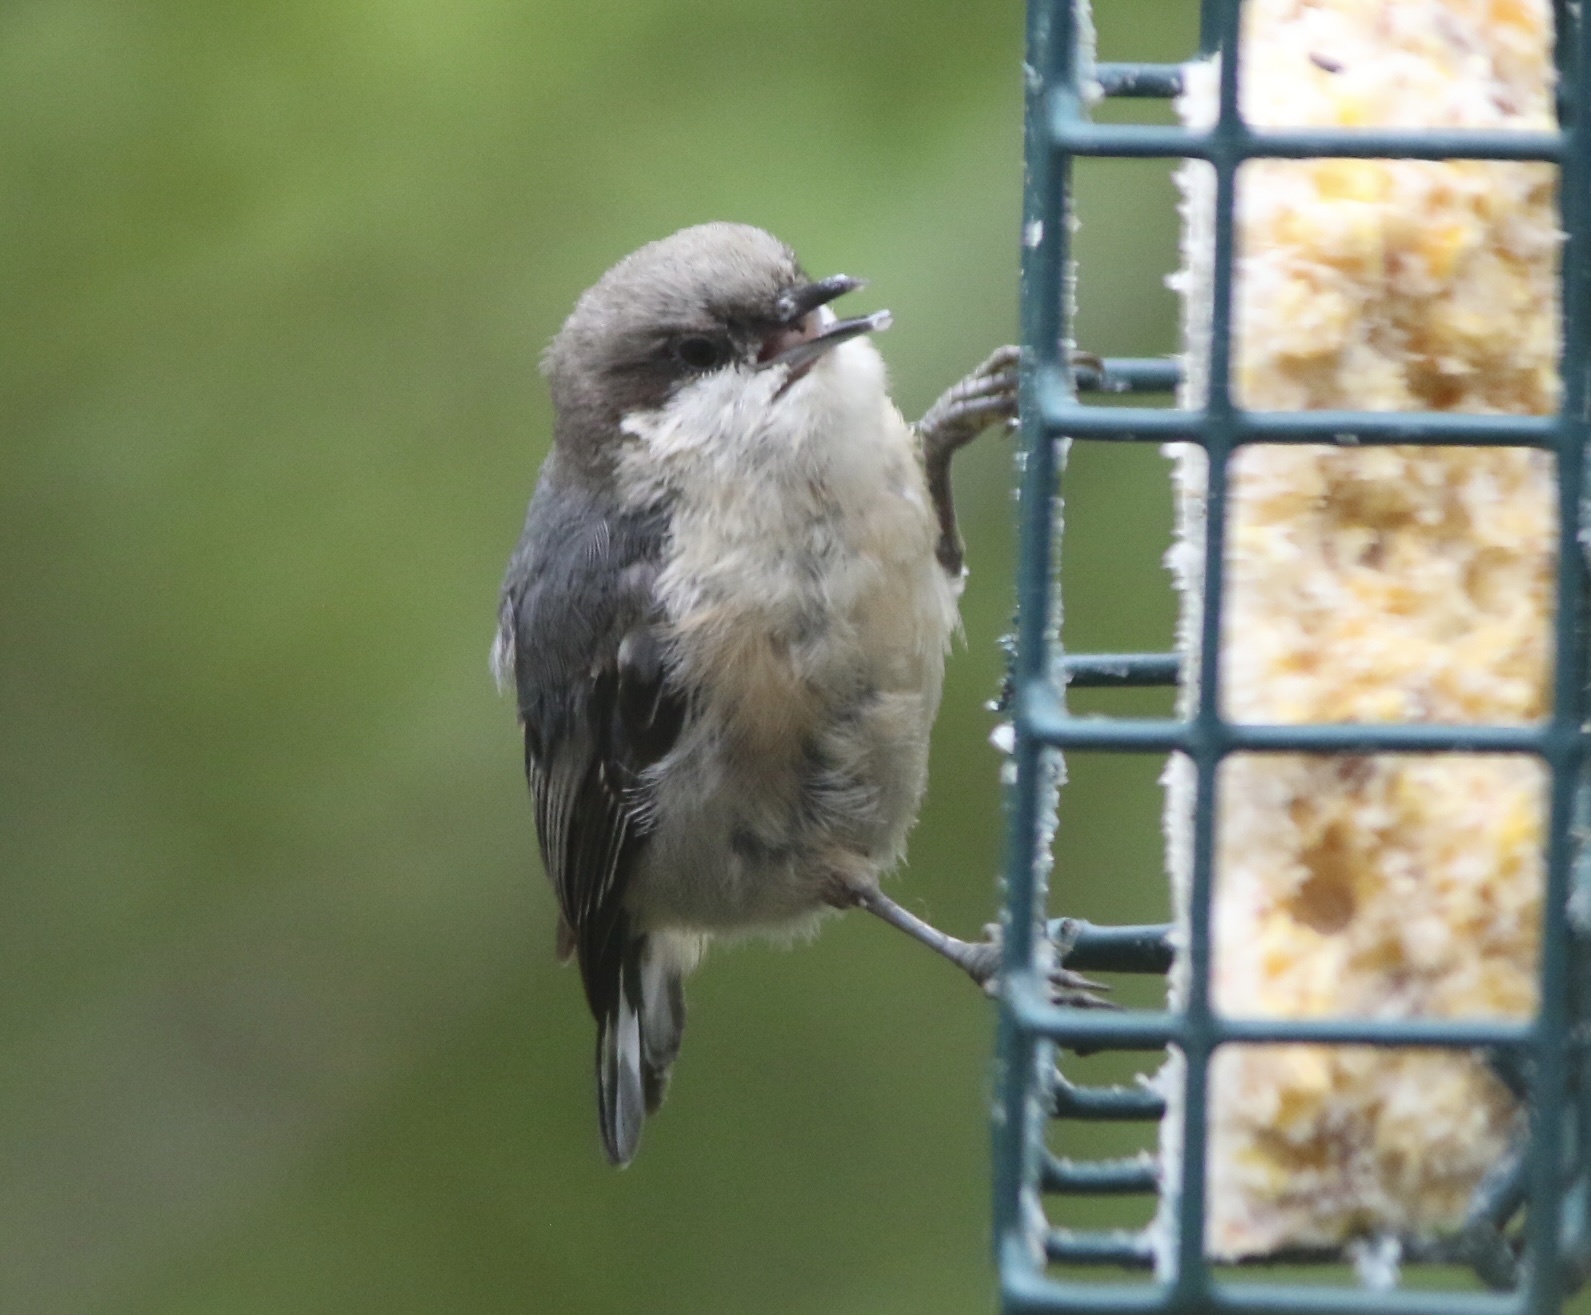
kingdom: Animalia
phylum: Chordata
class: Aves
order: Passeriformes
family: Sittidae
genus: Sitta
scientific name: Sitta pygmaea
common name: Pygmy nuthatch
